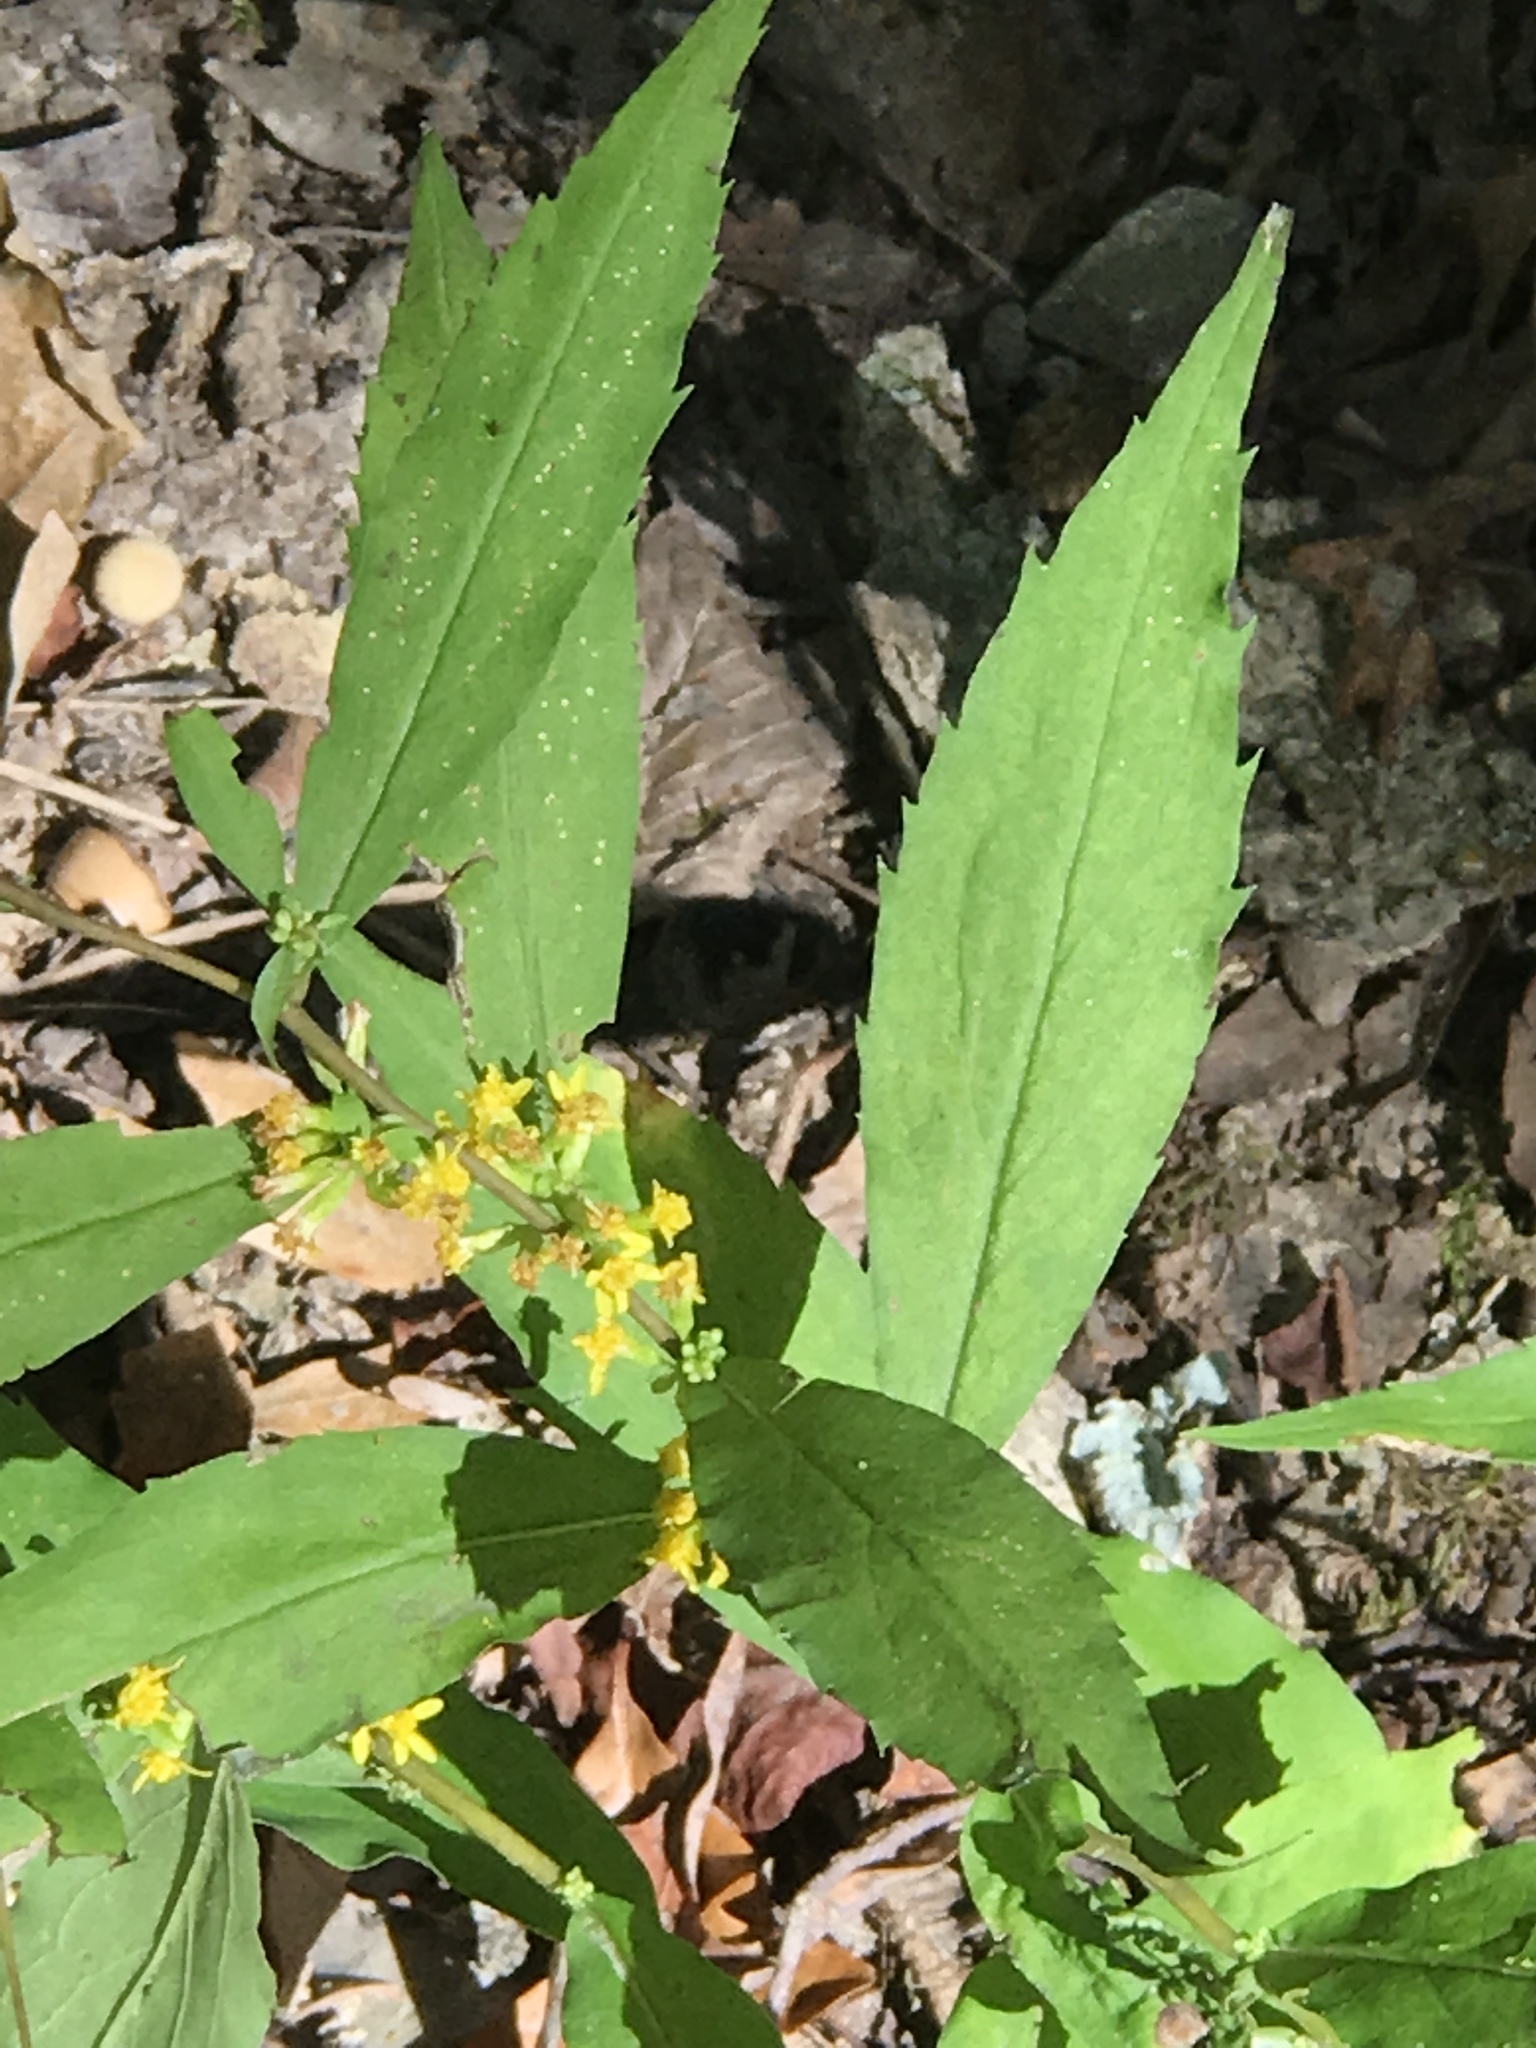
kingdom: Plantae
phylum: Tracheophyta
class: Magnoliopsida
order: Asterales
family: Asteraceae
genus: Solidago
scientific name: Solidago caesia
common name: Woodland goldenrod
